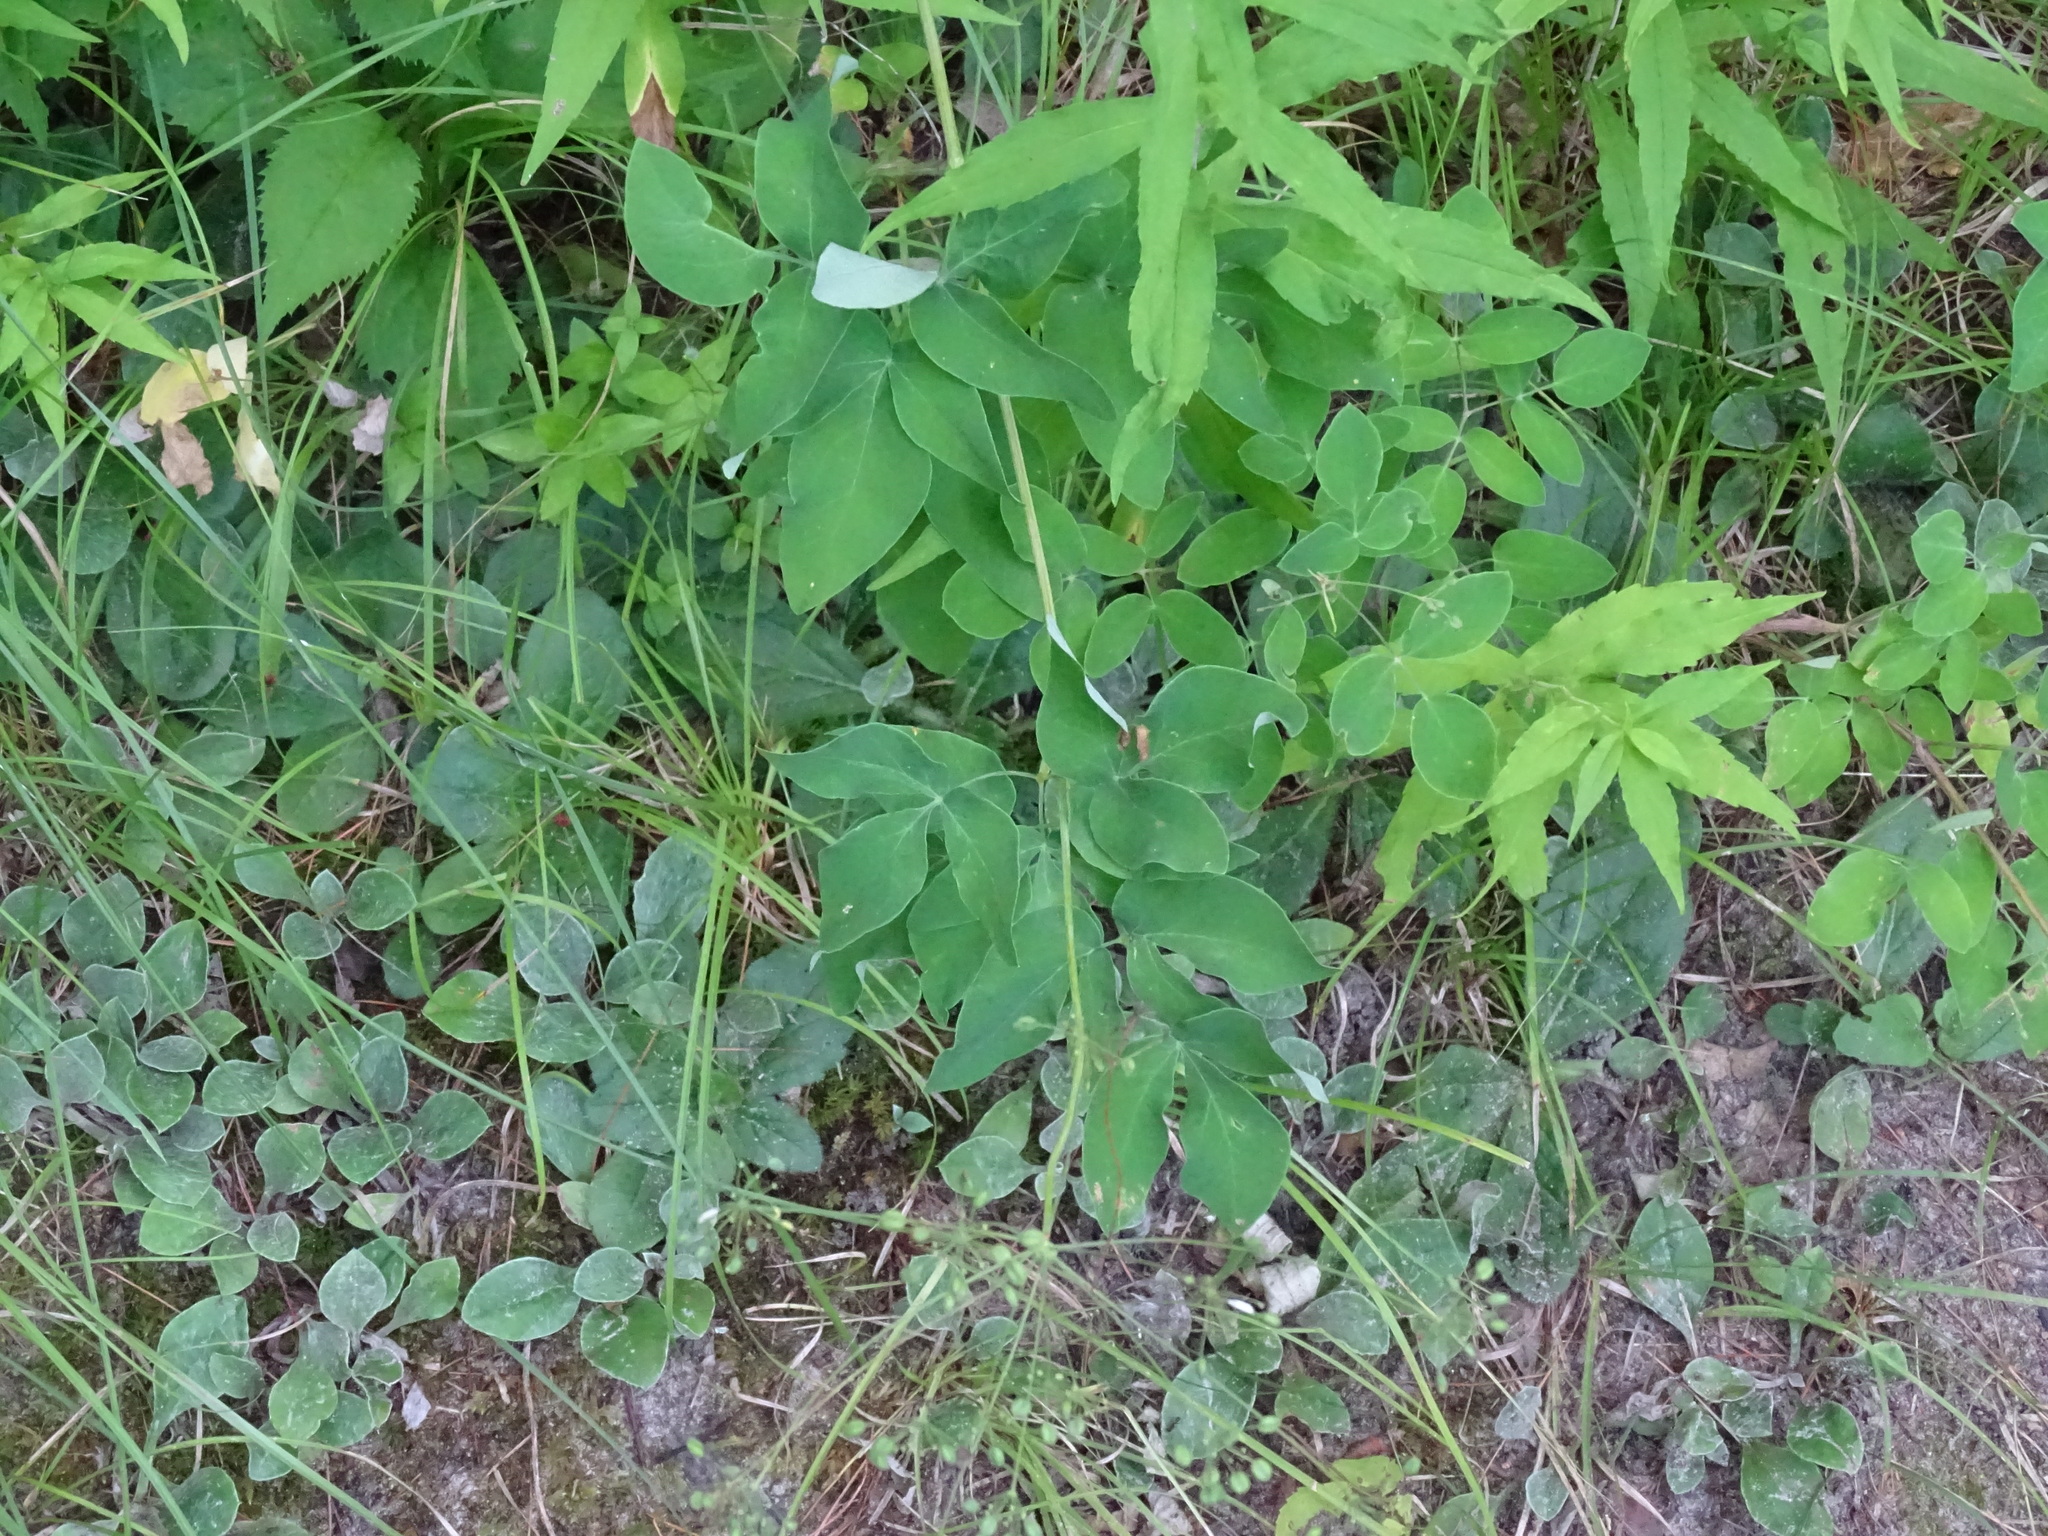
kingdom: Plantae
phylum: Tracheophyta
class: Magnoliopsida
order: Apiales
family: Apiaceae
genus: Taenidia
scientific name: Taenidia integerrima
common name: Golden alexander
